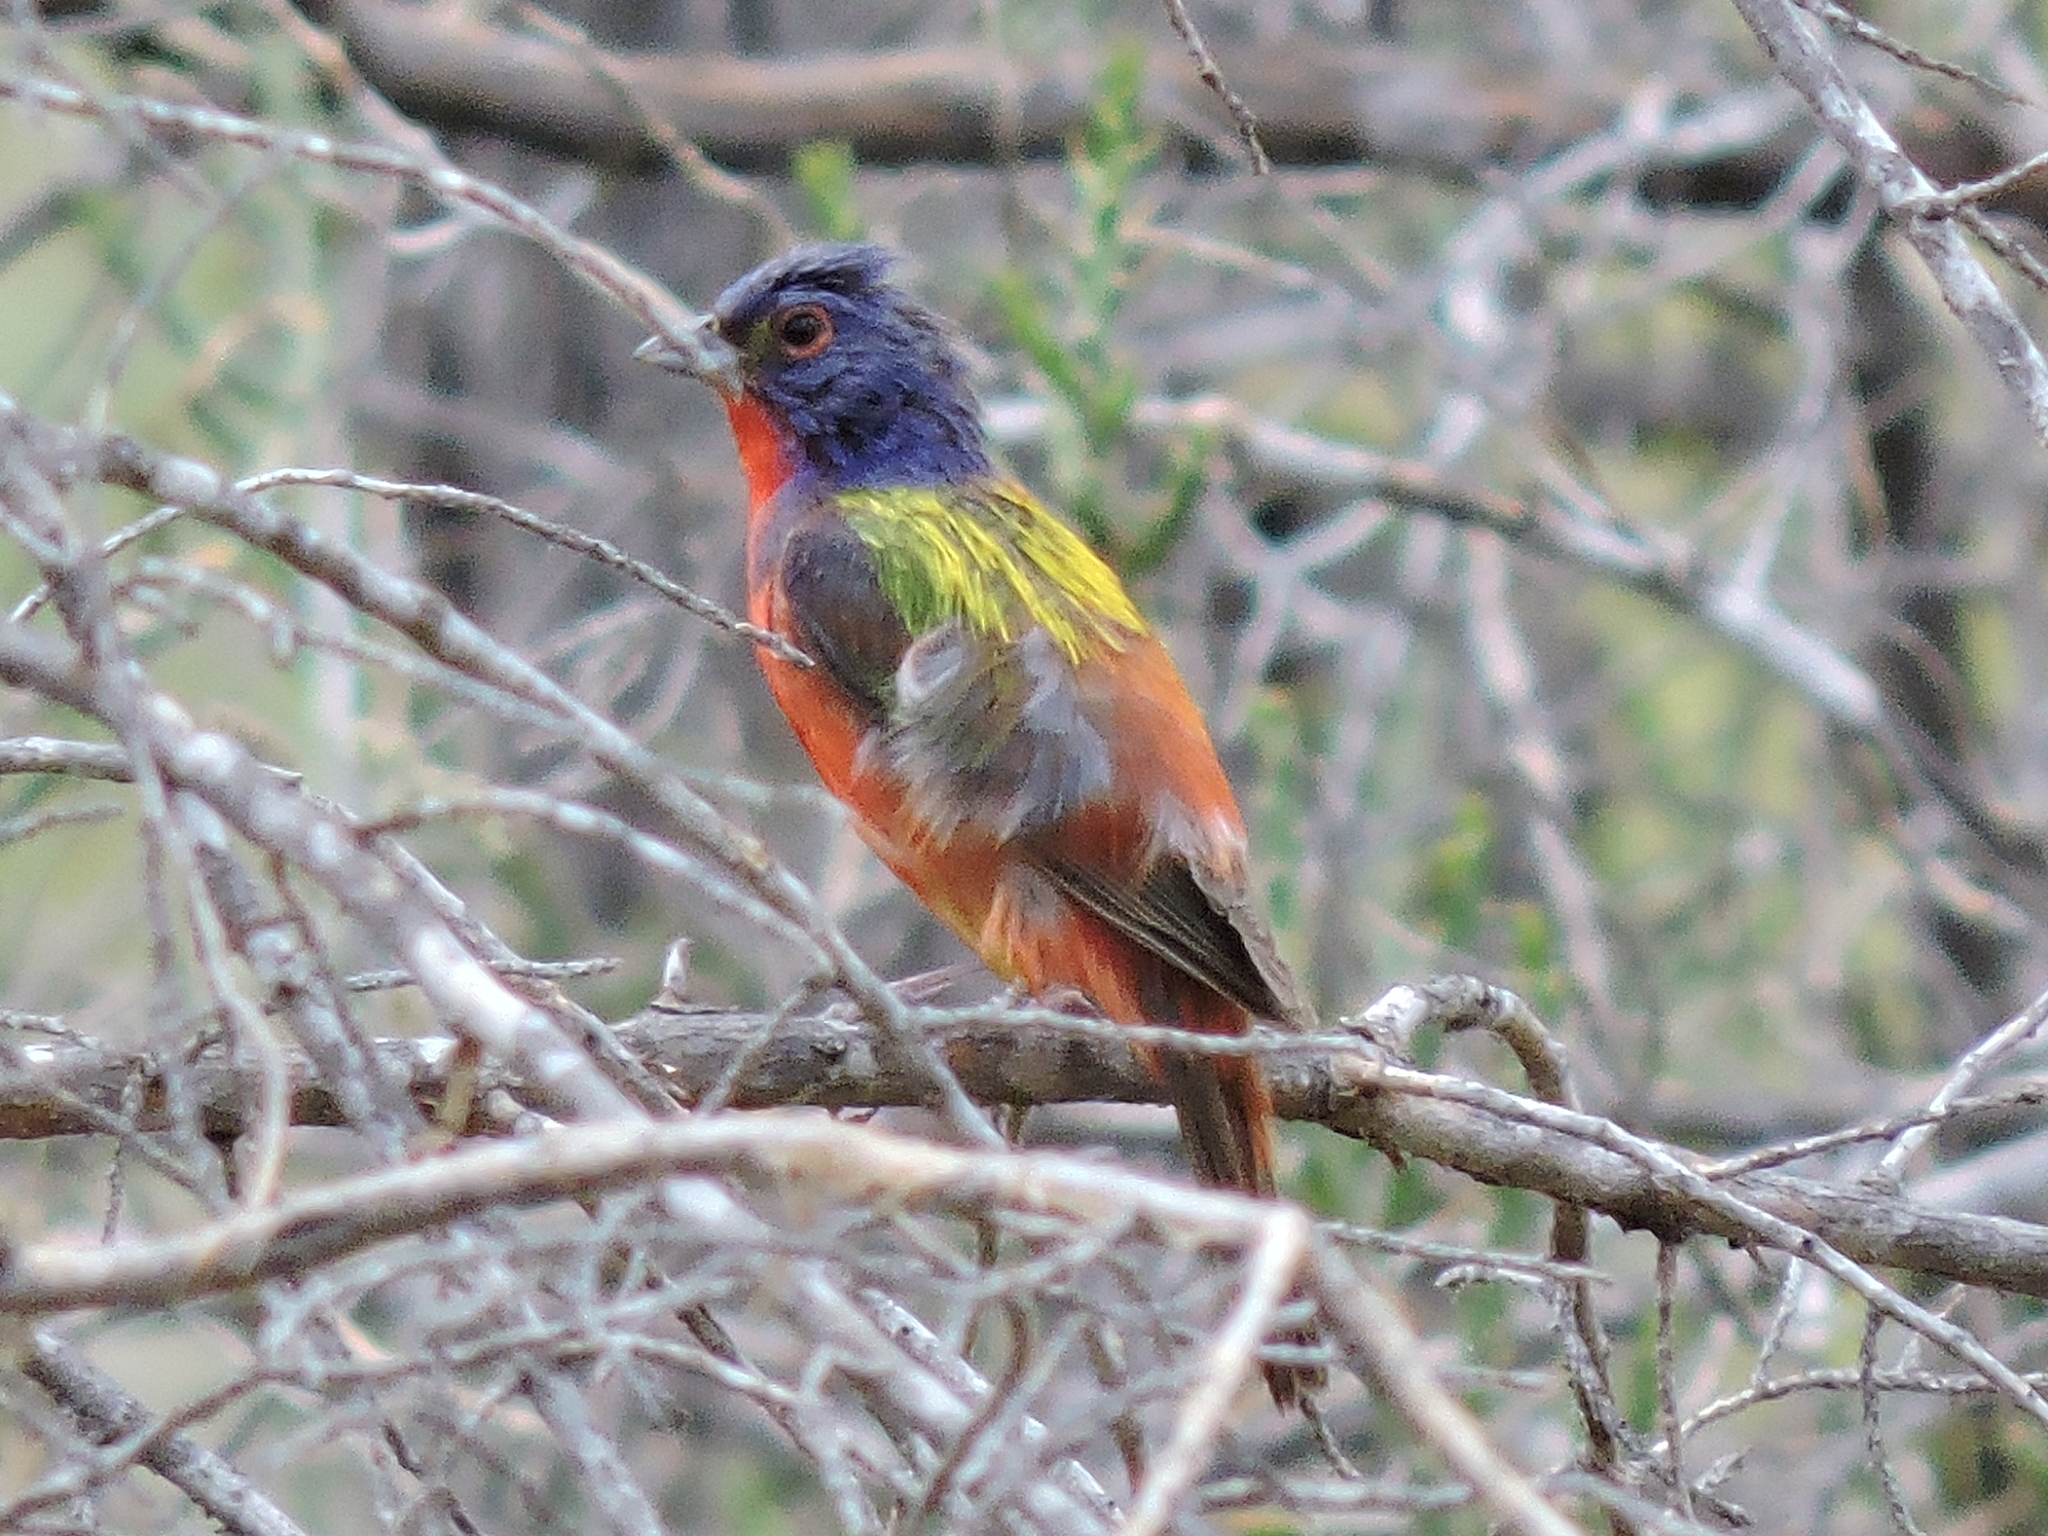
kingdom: Animalia
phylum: Chordata
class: Aves
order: Passeriformes
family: Cardinalidae
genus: Passerina
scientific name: Passerina ciris
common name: Painted bunting
